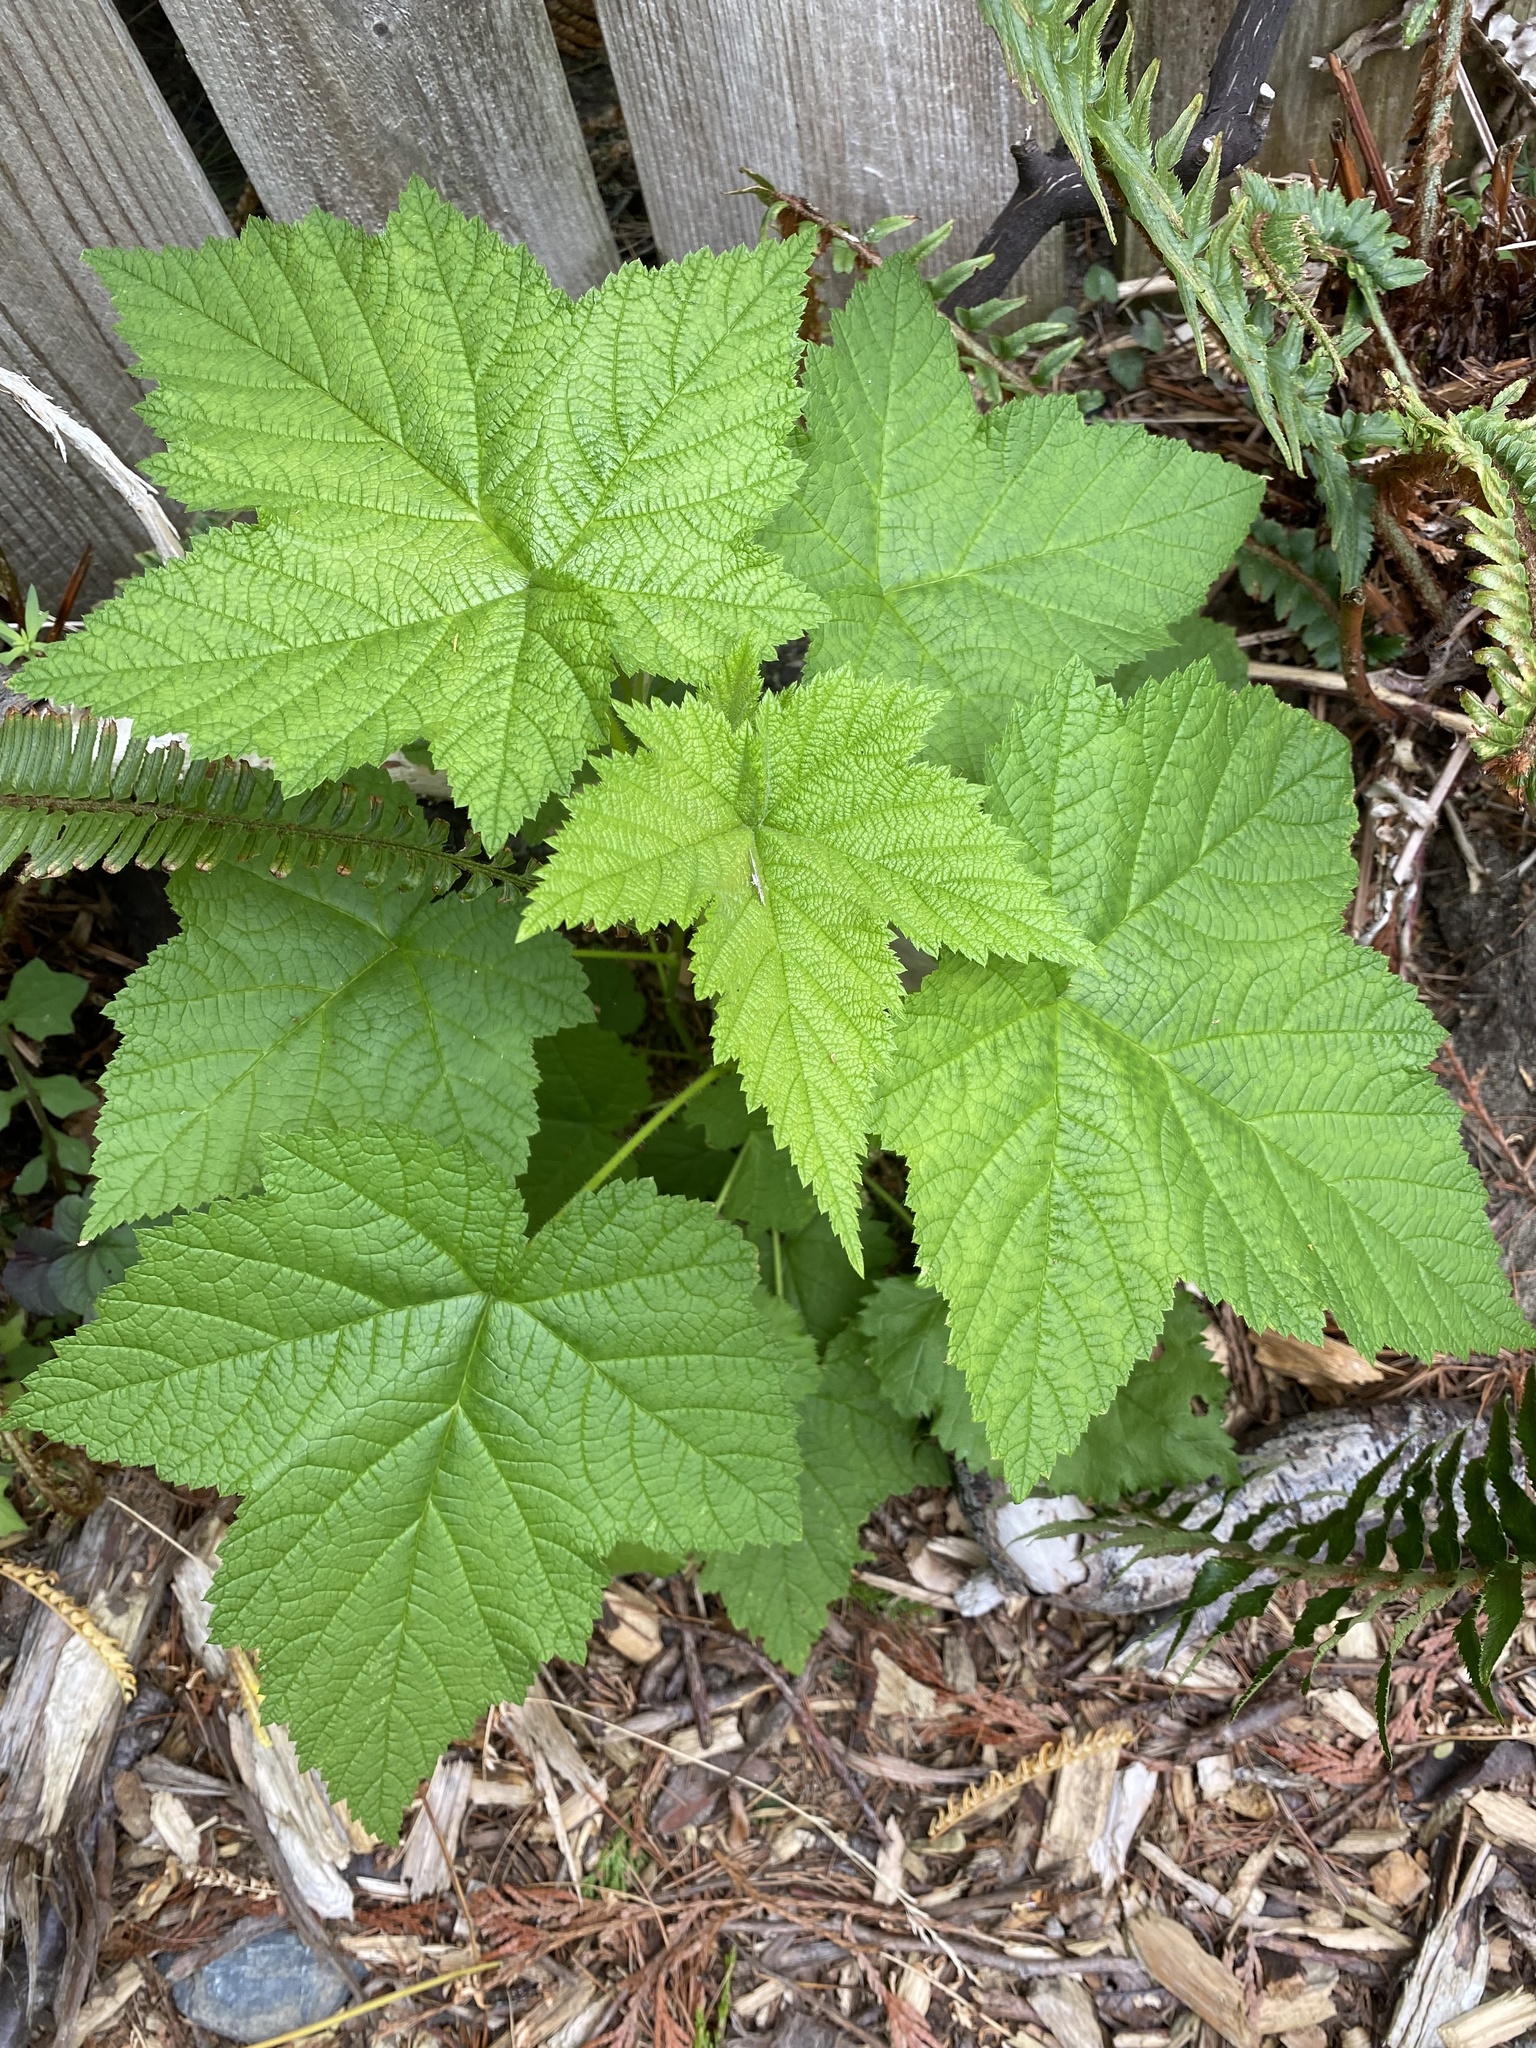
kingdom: Plantae
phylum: Tracheophyta
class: Magnoliopsida
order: Rosales
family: Rosaceae
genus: Rubus
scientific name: Rubus parviflorus
